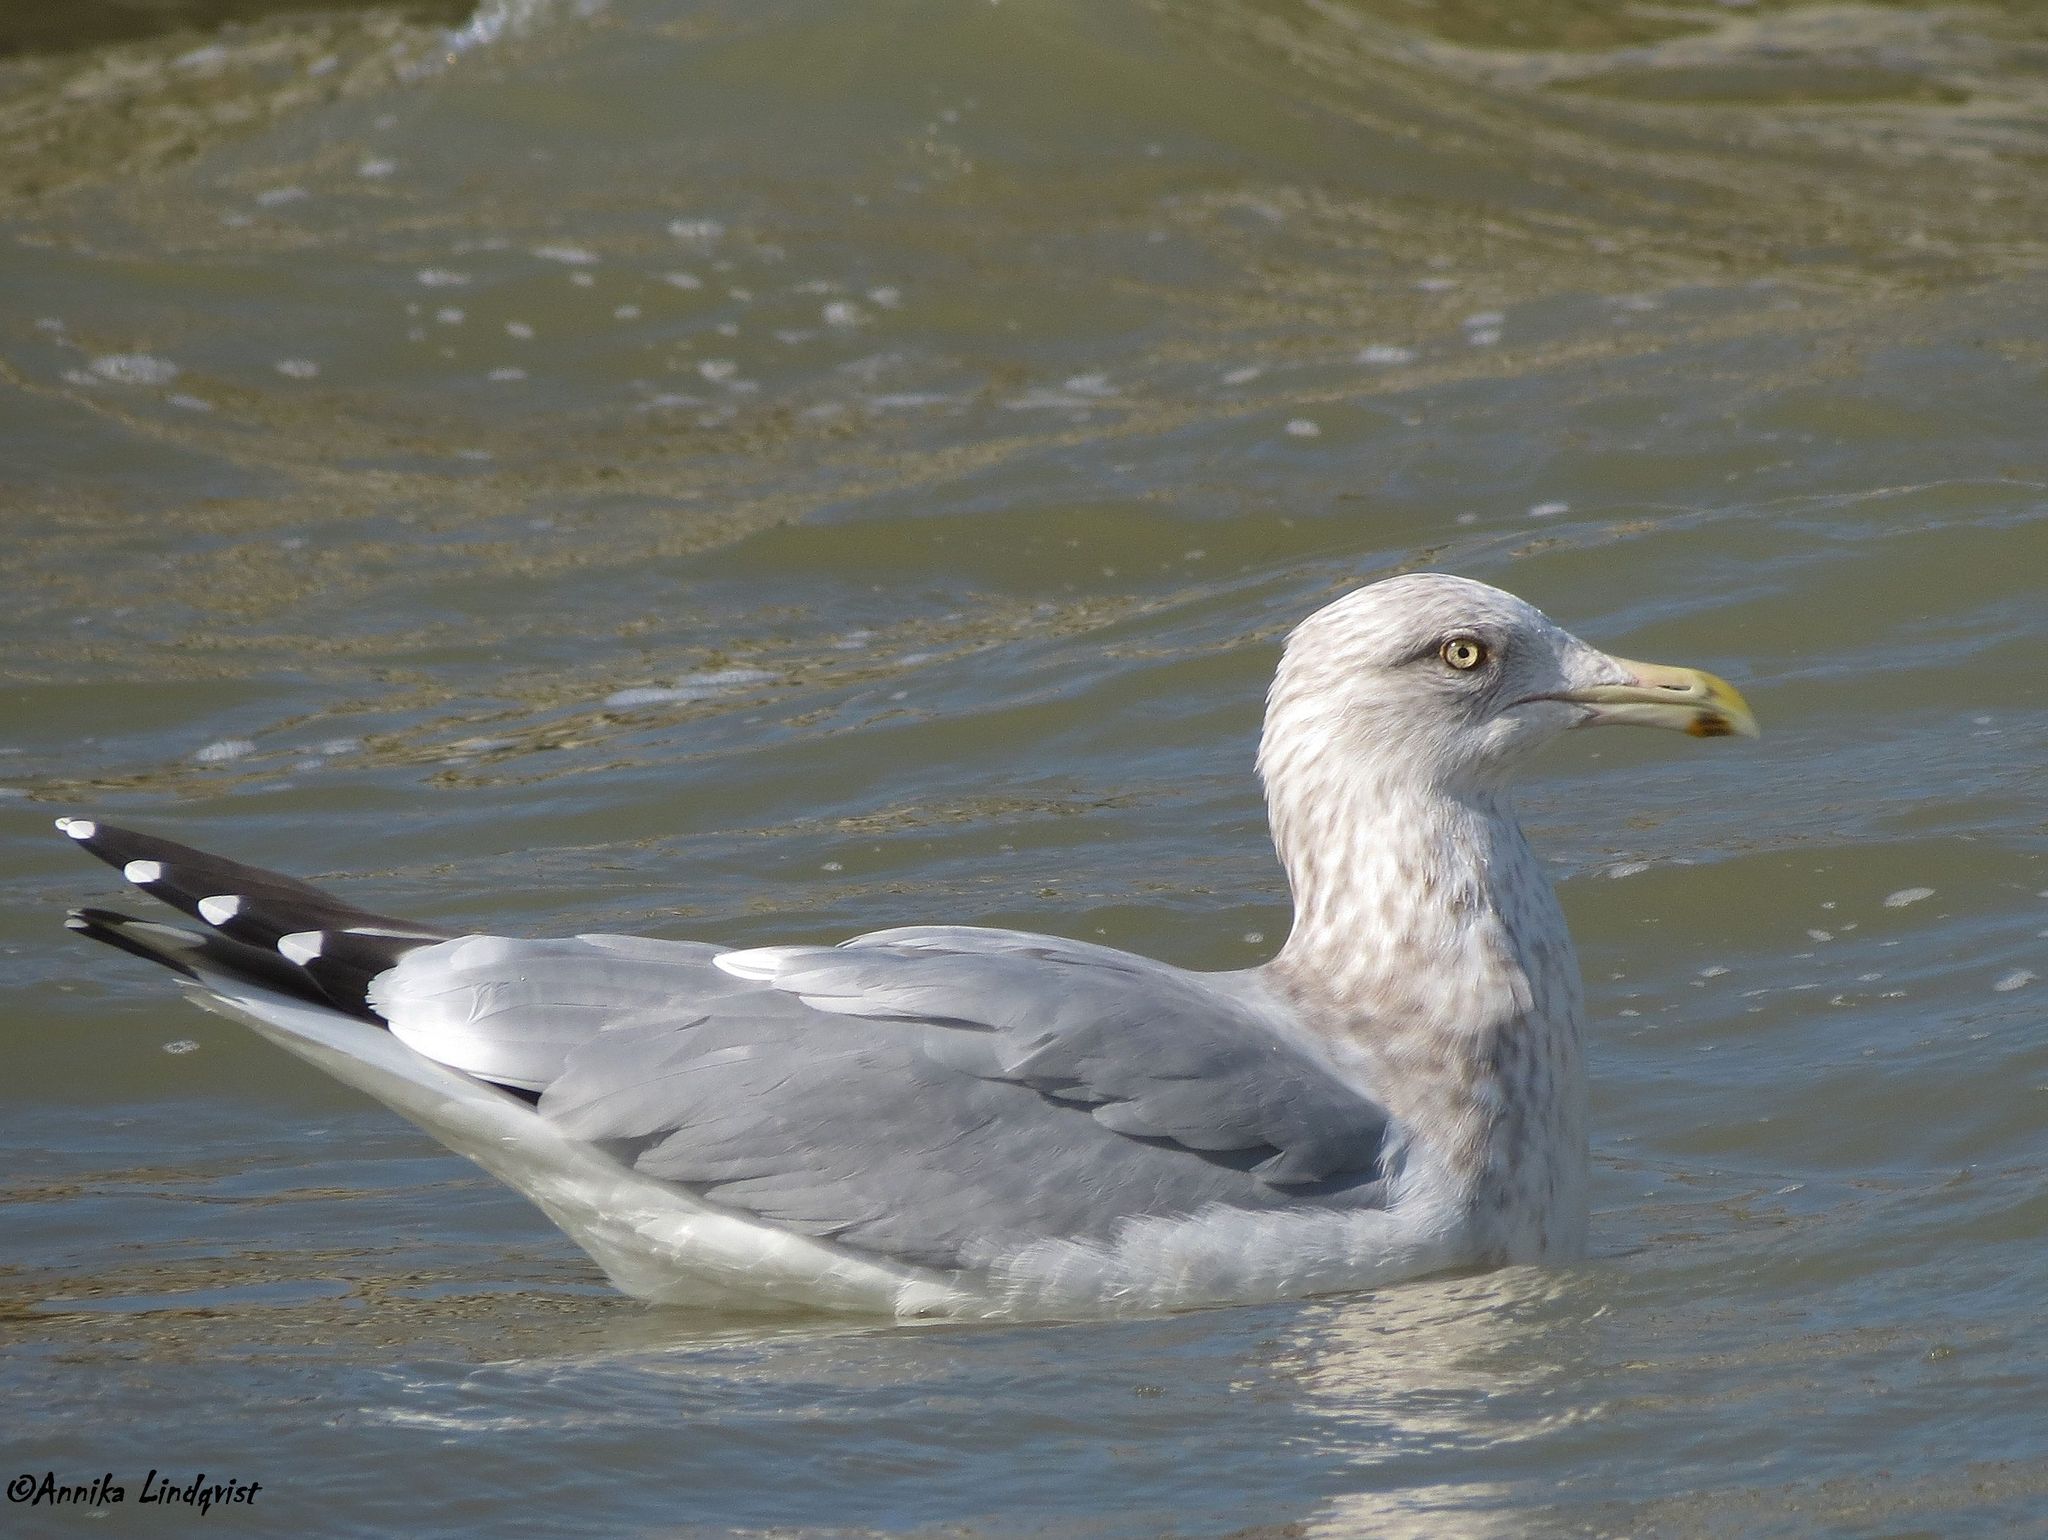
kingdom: Animalia
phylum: Chordata
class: Aves
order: Charadriiformes
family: Laridae
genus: Larus
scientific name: Larus argentatus
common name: Herring gull
